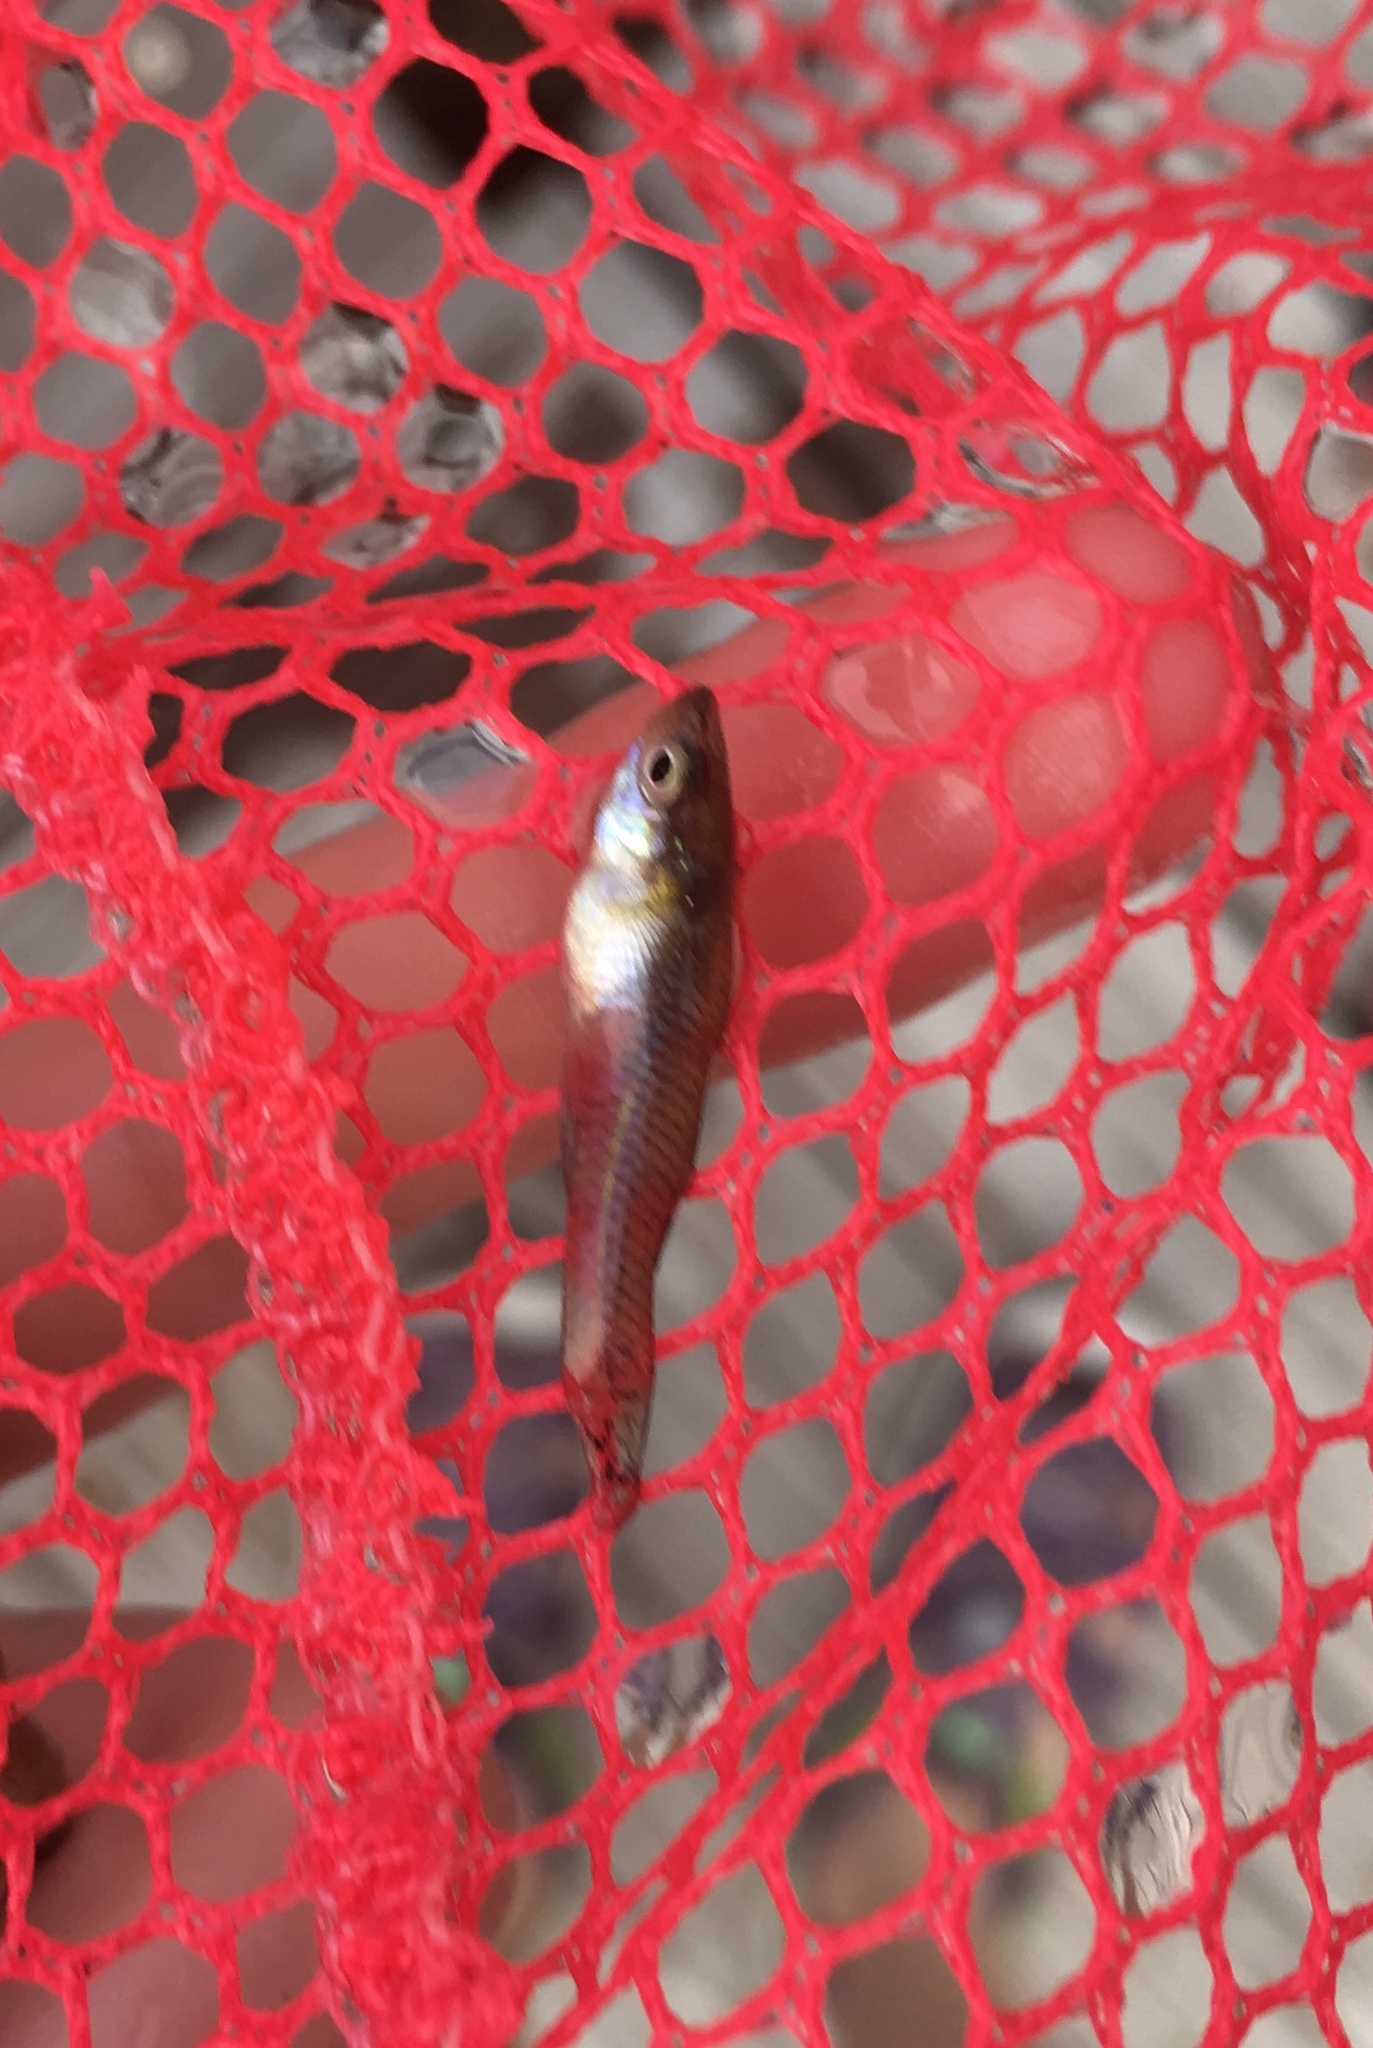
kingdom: Animalia
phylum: Chordata
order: Cyprinodontiformes
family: Poeciliidae
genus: Gambusia
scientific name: Gambusia holbrooki
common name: Eastern mosquitofish
